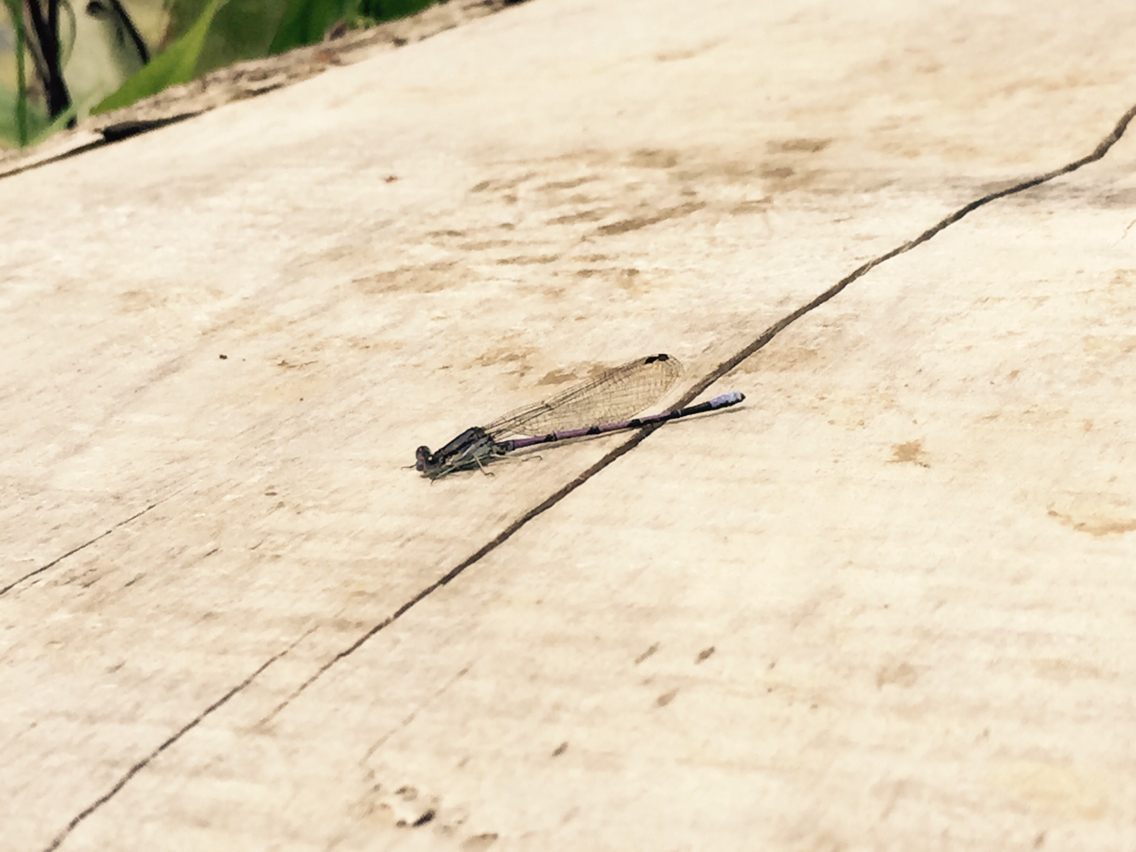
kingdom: Animalia
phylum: Arthropoda
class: Insecta
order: Odonata
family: Coenagrionidae
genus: Argia
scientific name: Argia fumipennis
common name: Variable dancer
